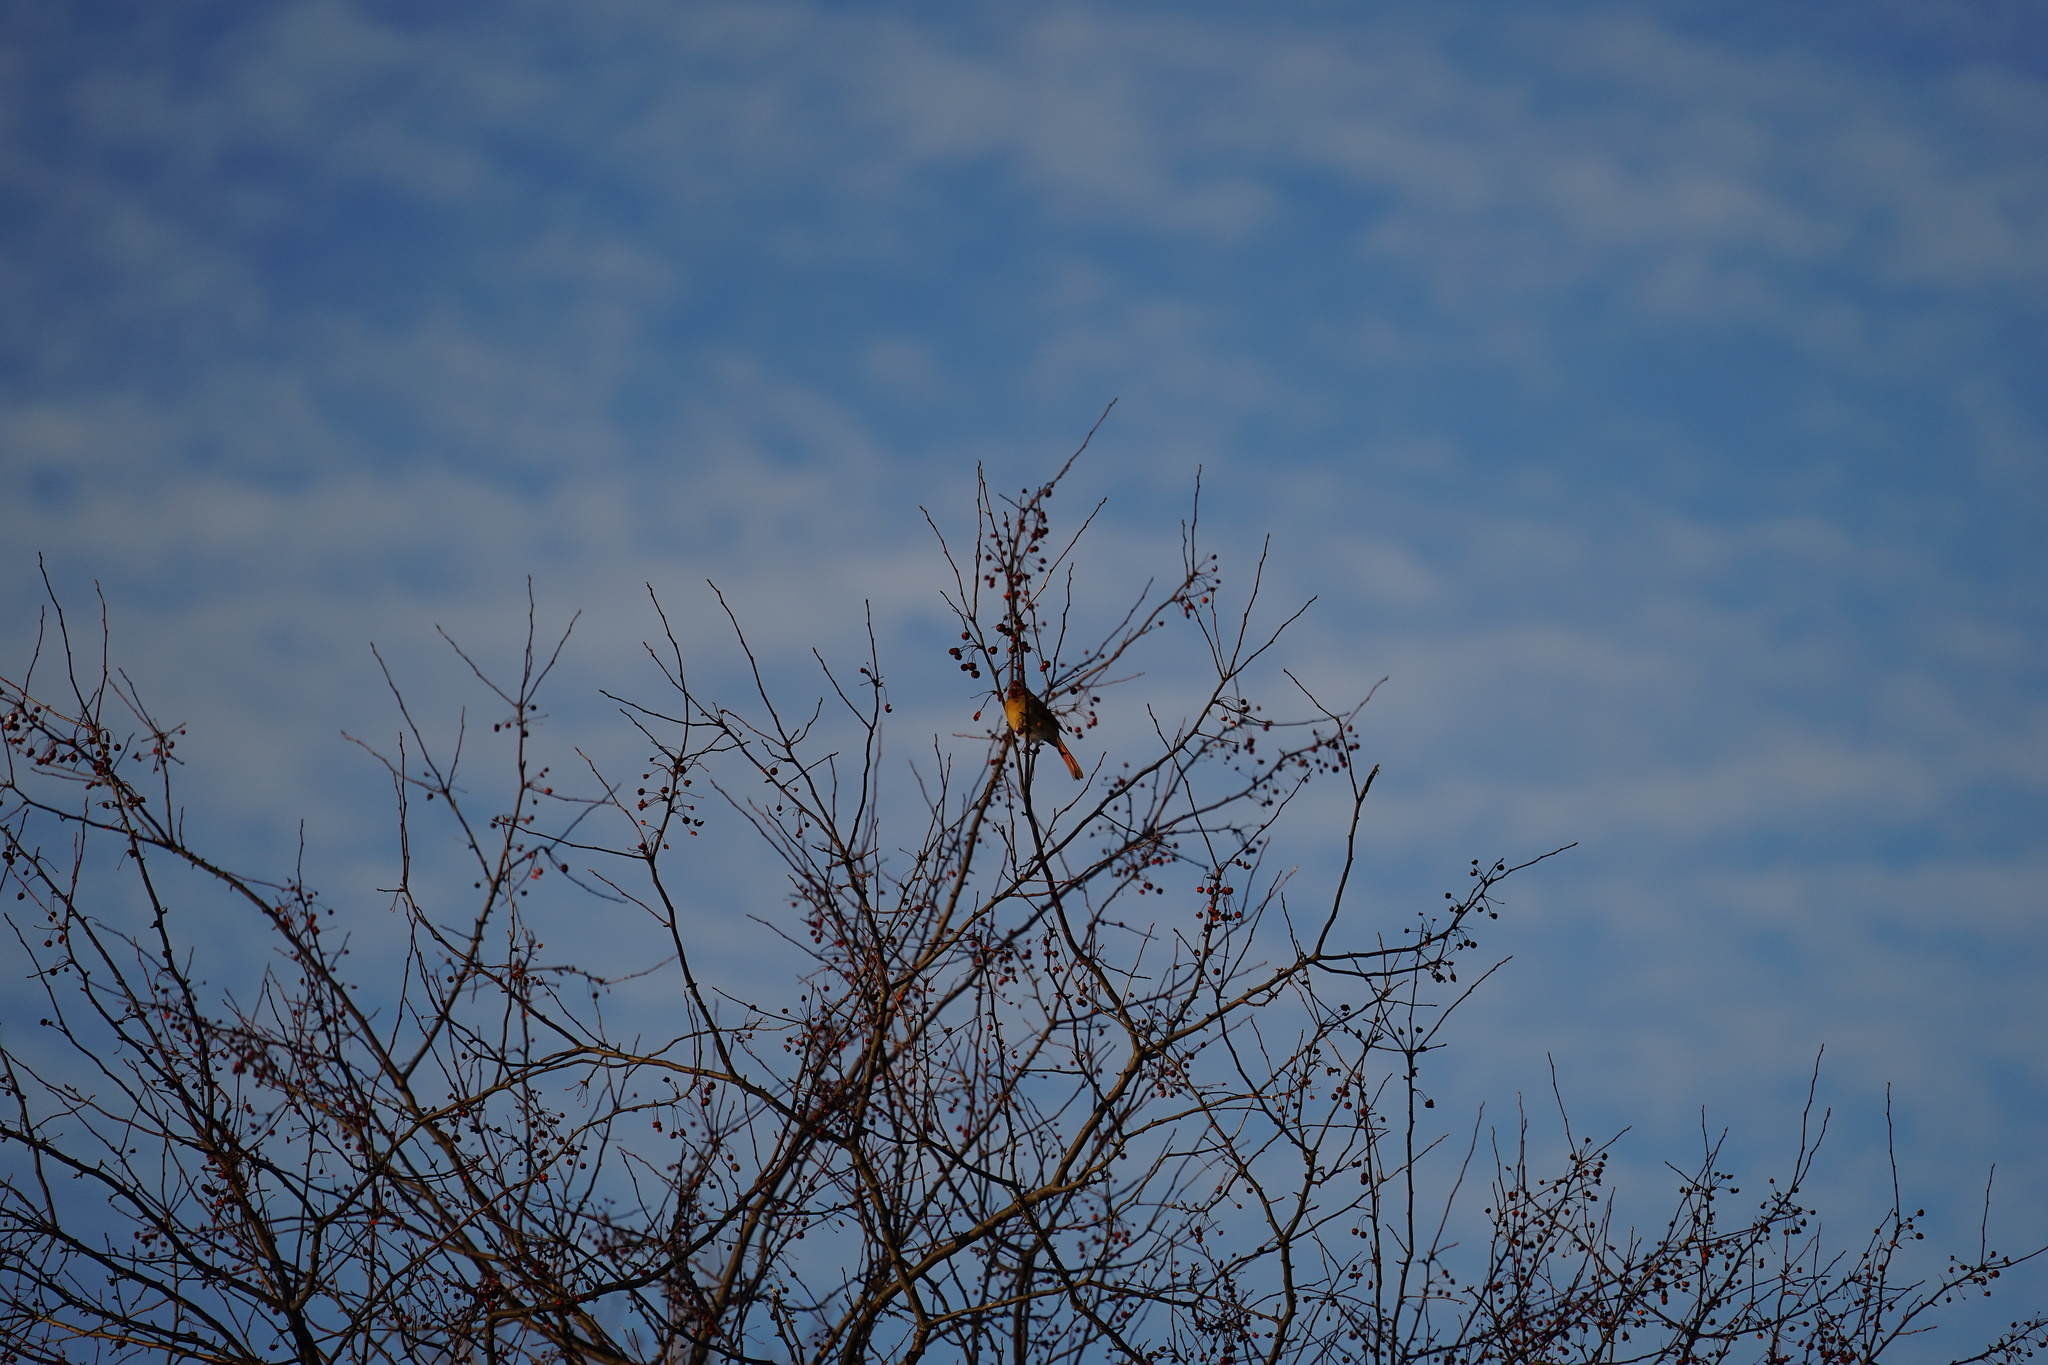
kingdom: Animalia
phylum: Chordata
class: Aves
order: Passeriformes
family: Cardinalidae
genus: Cardinalis
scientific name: Cardinalis cardinalis
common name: Northern cardinal
